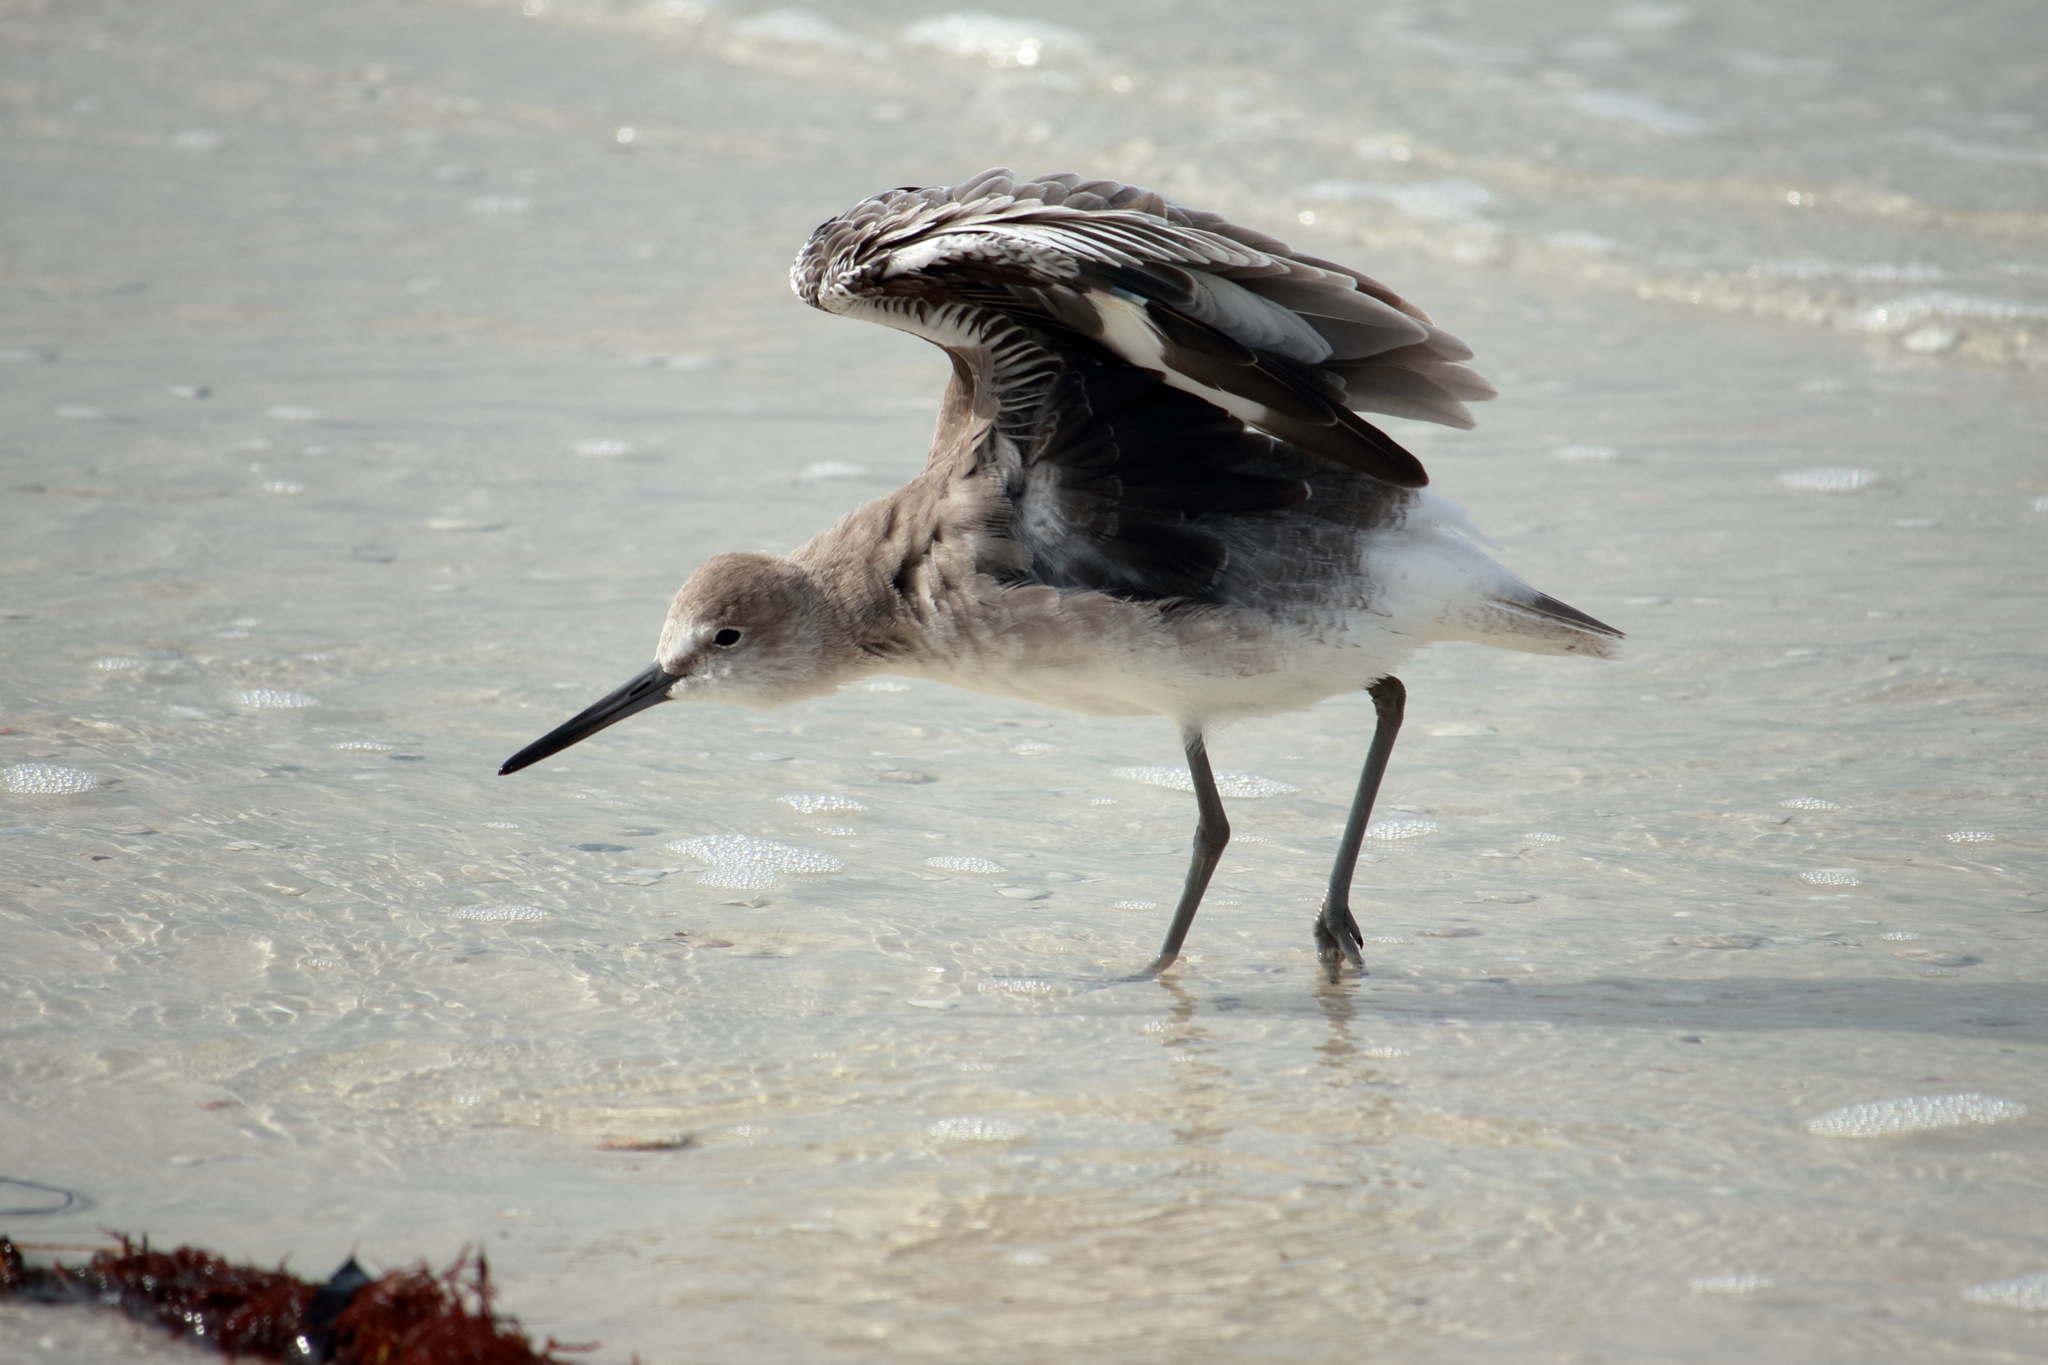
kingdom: Animalia
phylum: Chordata
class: Aves
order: Charadriiformes
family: Scolopacidae
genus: Tringa
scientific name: Tringa semipalmata
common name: Willet
